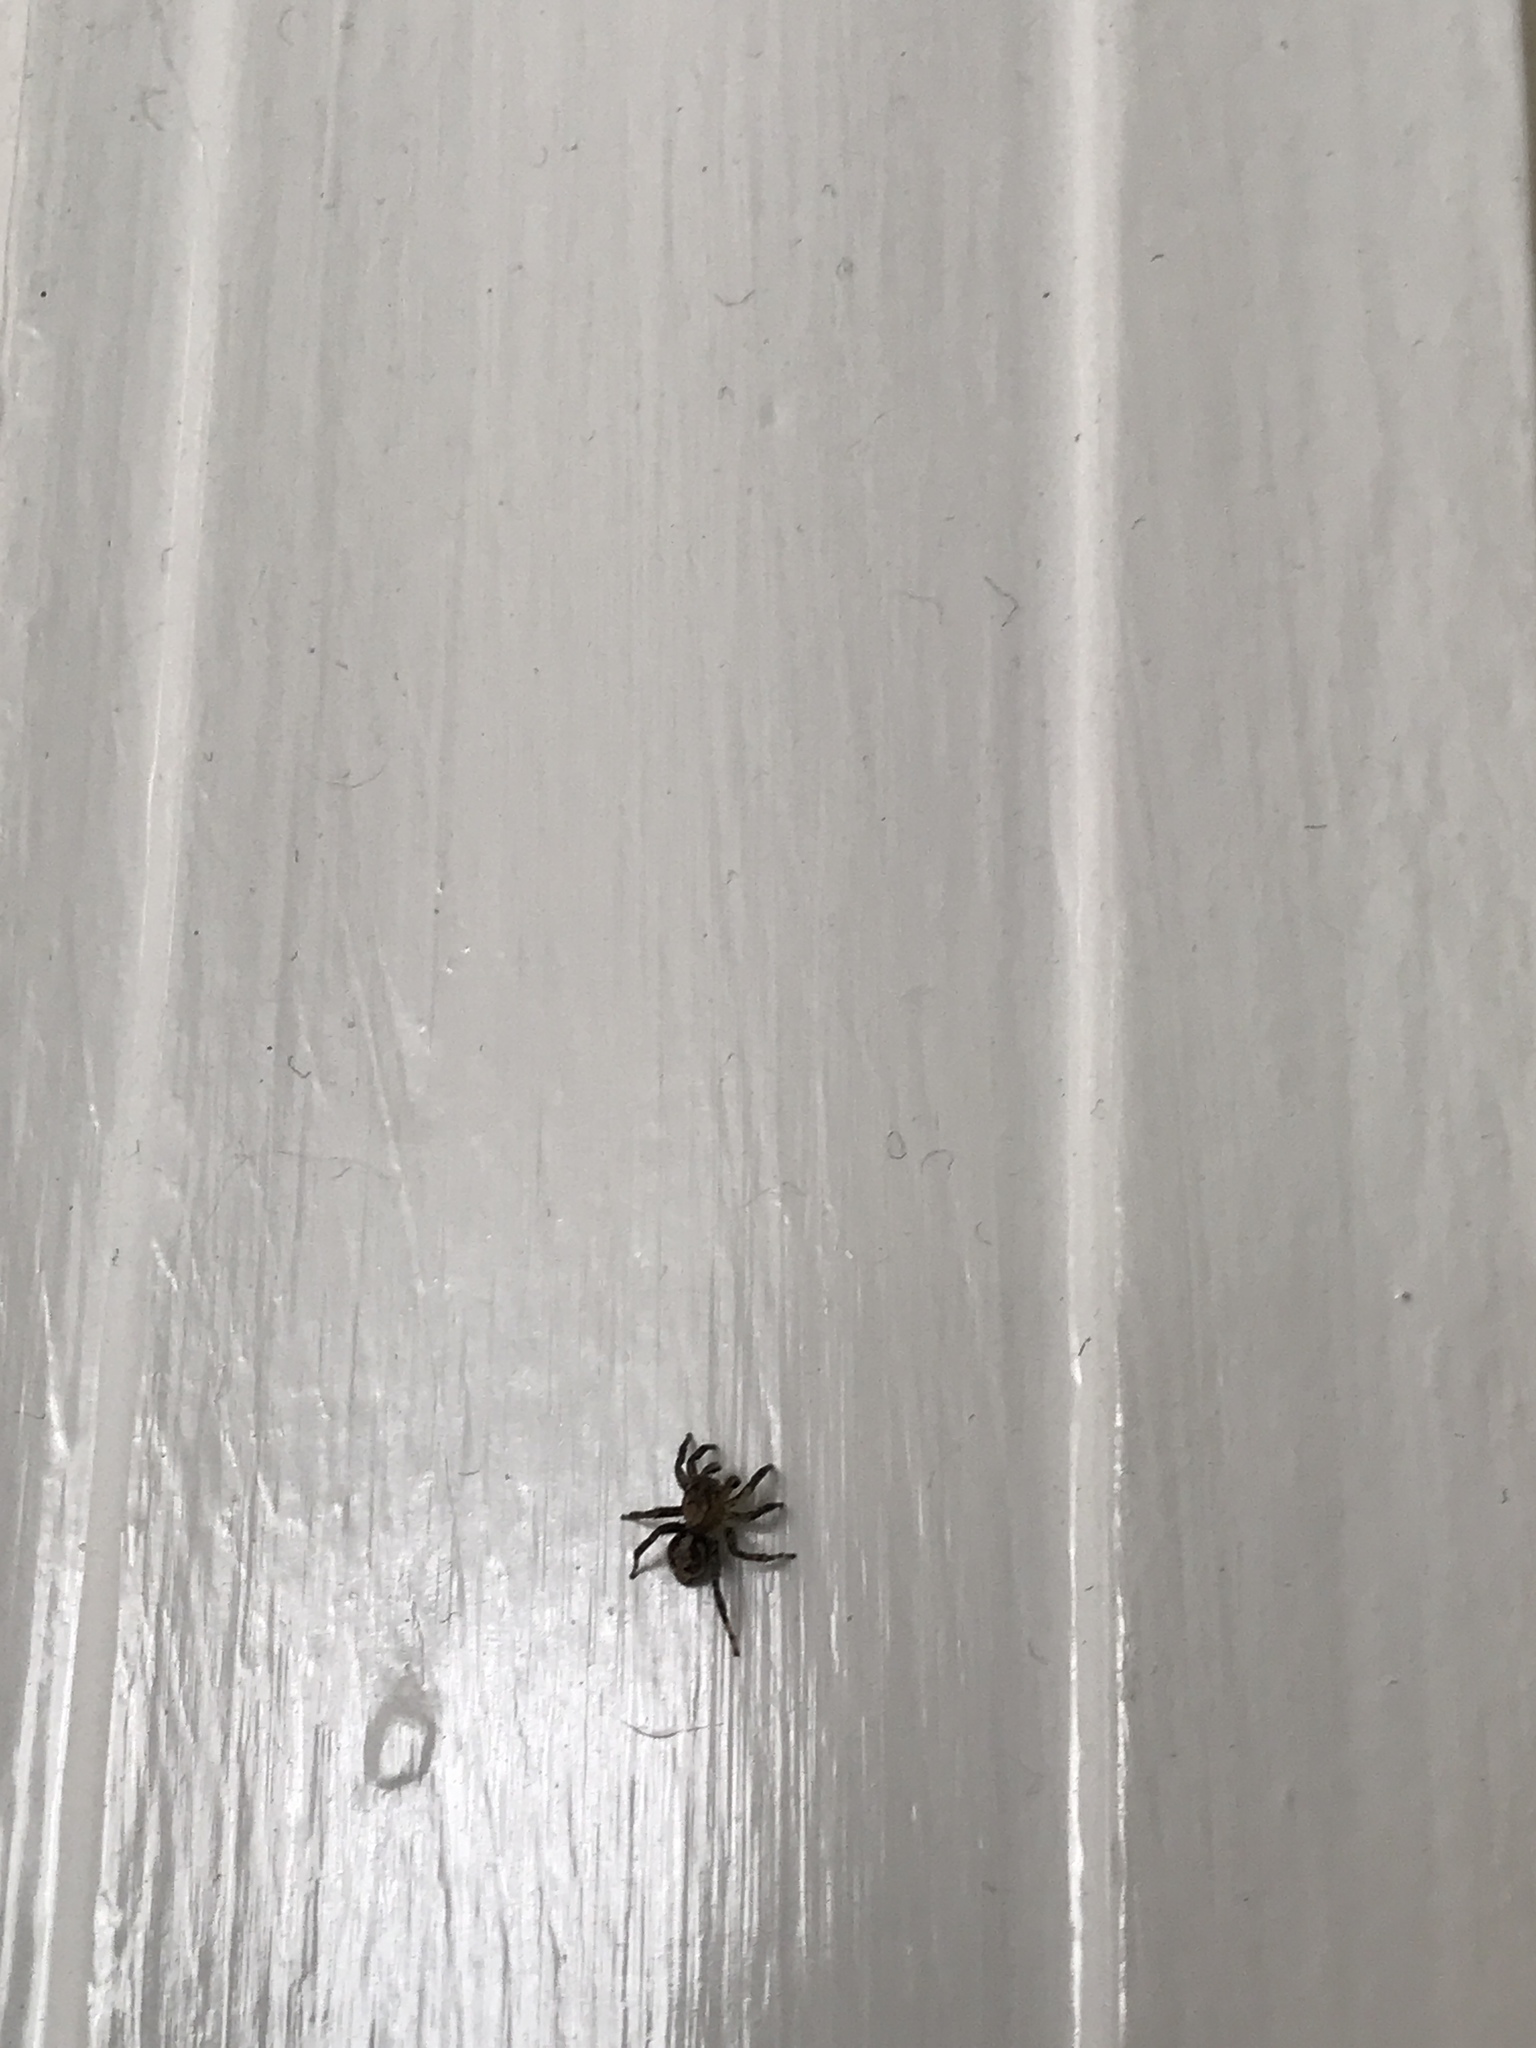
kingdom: Animalia
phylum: Arthropoda
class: Arachnida
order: Araneae
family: Salticidae
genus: Naphrys
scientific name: Naphrys pulex
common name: Flea jumping spider
